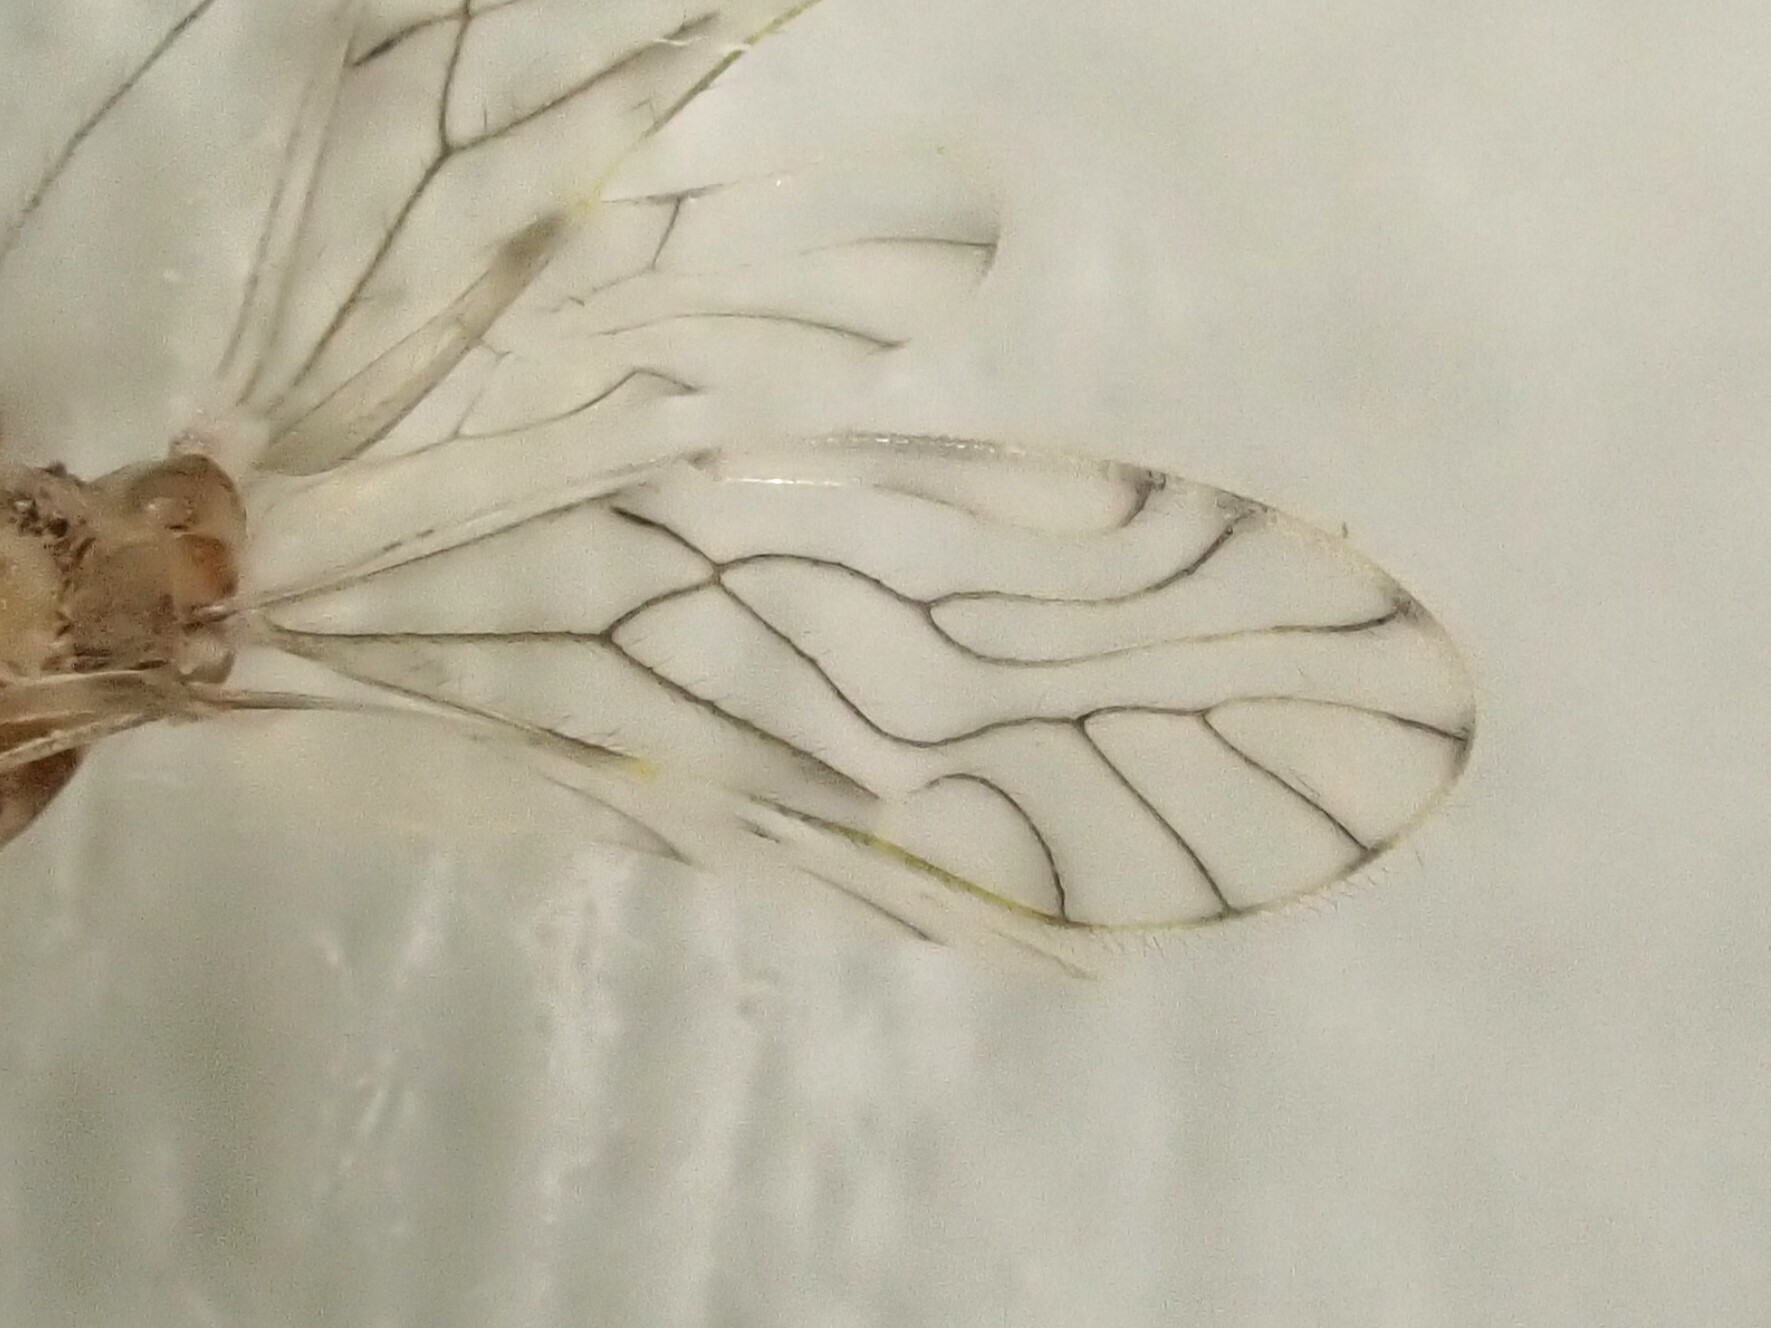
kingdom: Animalia
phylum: Arthropoda
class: Insecta
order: Psocodea
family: Pseudocaeciliidae
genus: Lobocaecilius
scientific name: Lobocaecilius monicus
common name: Barklice
